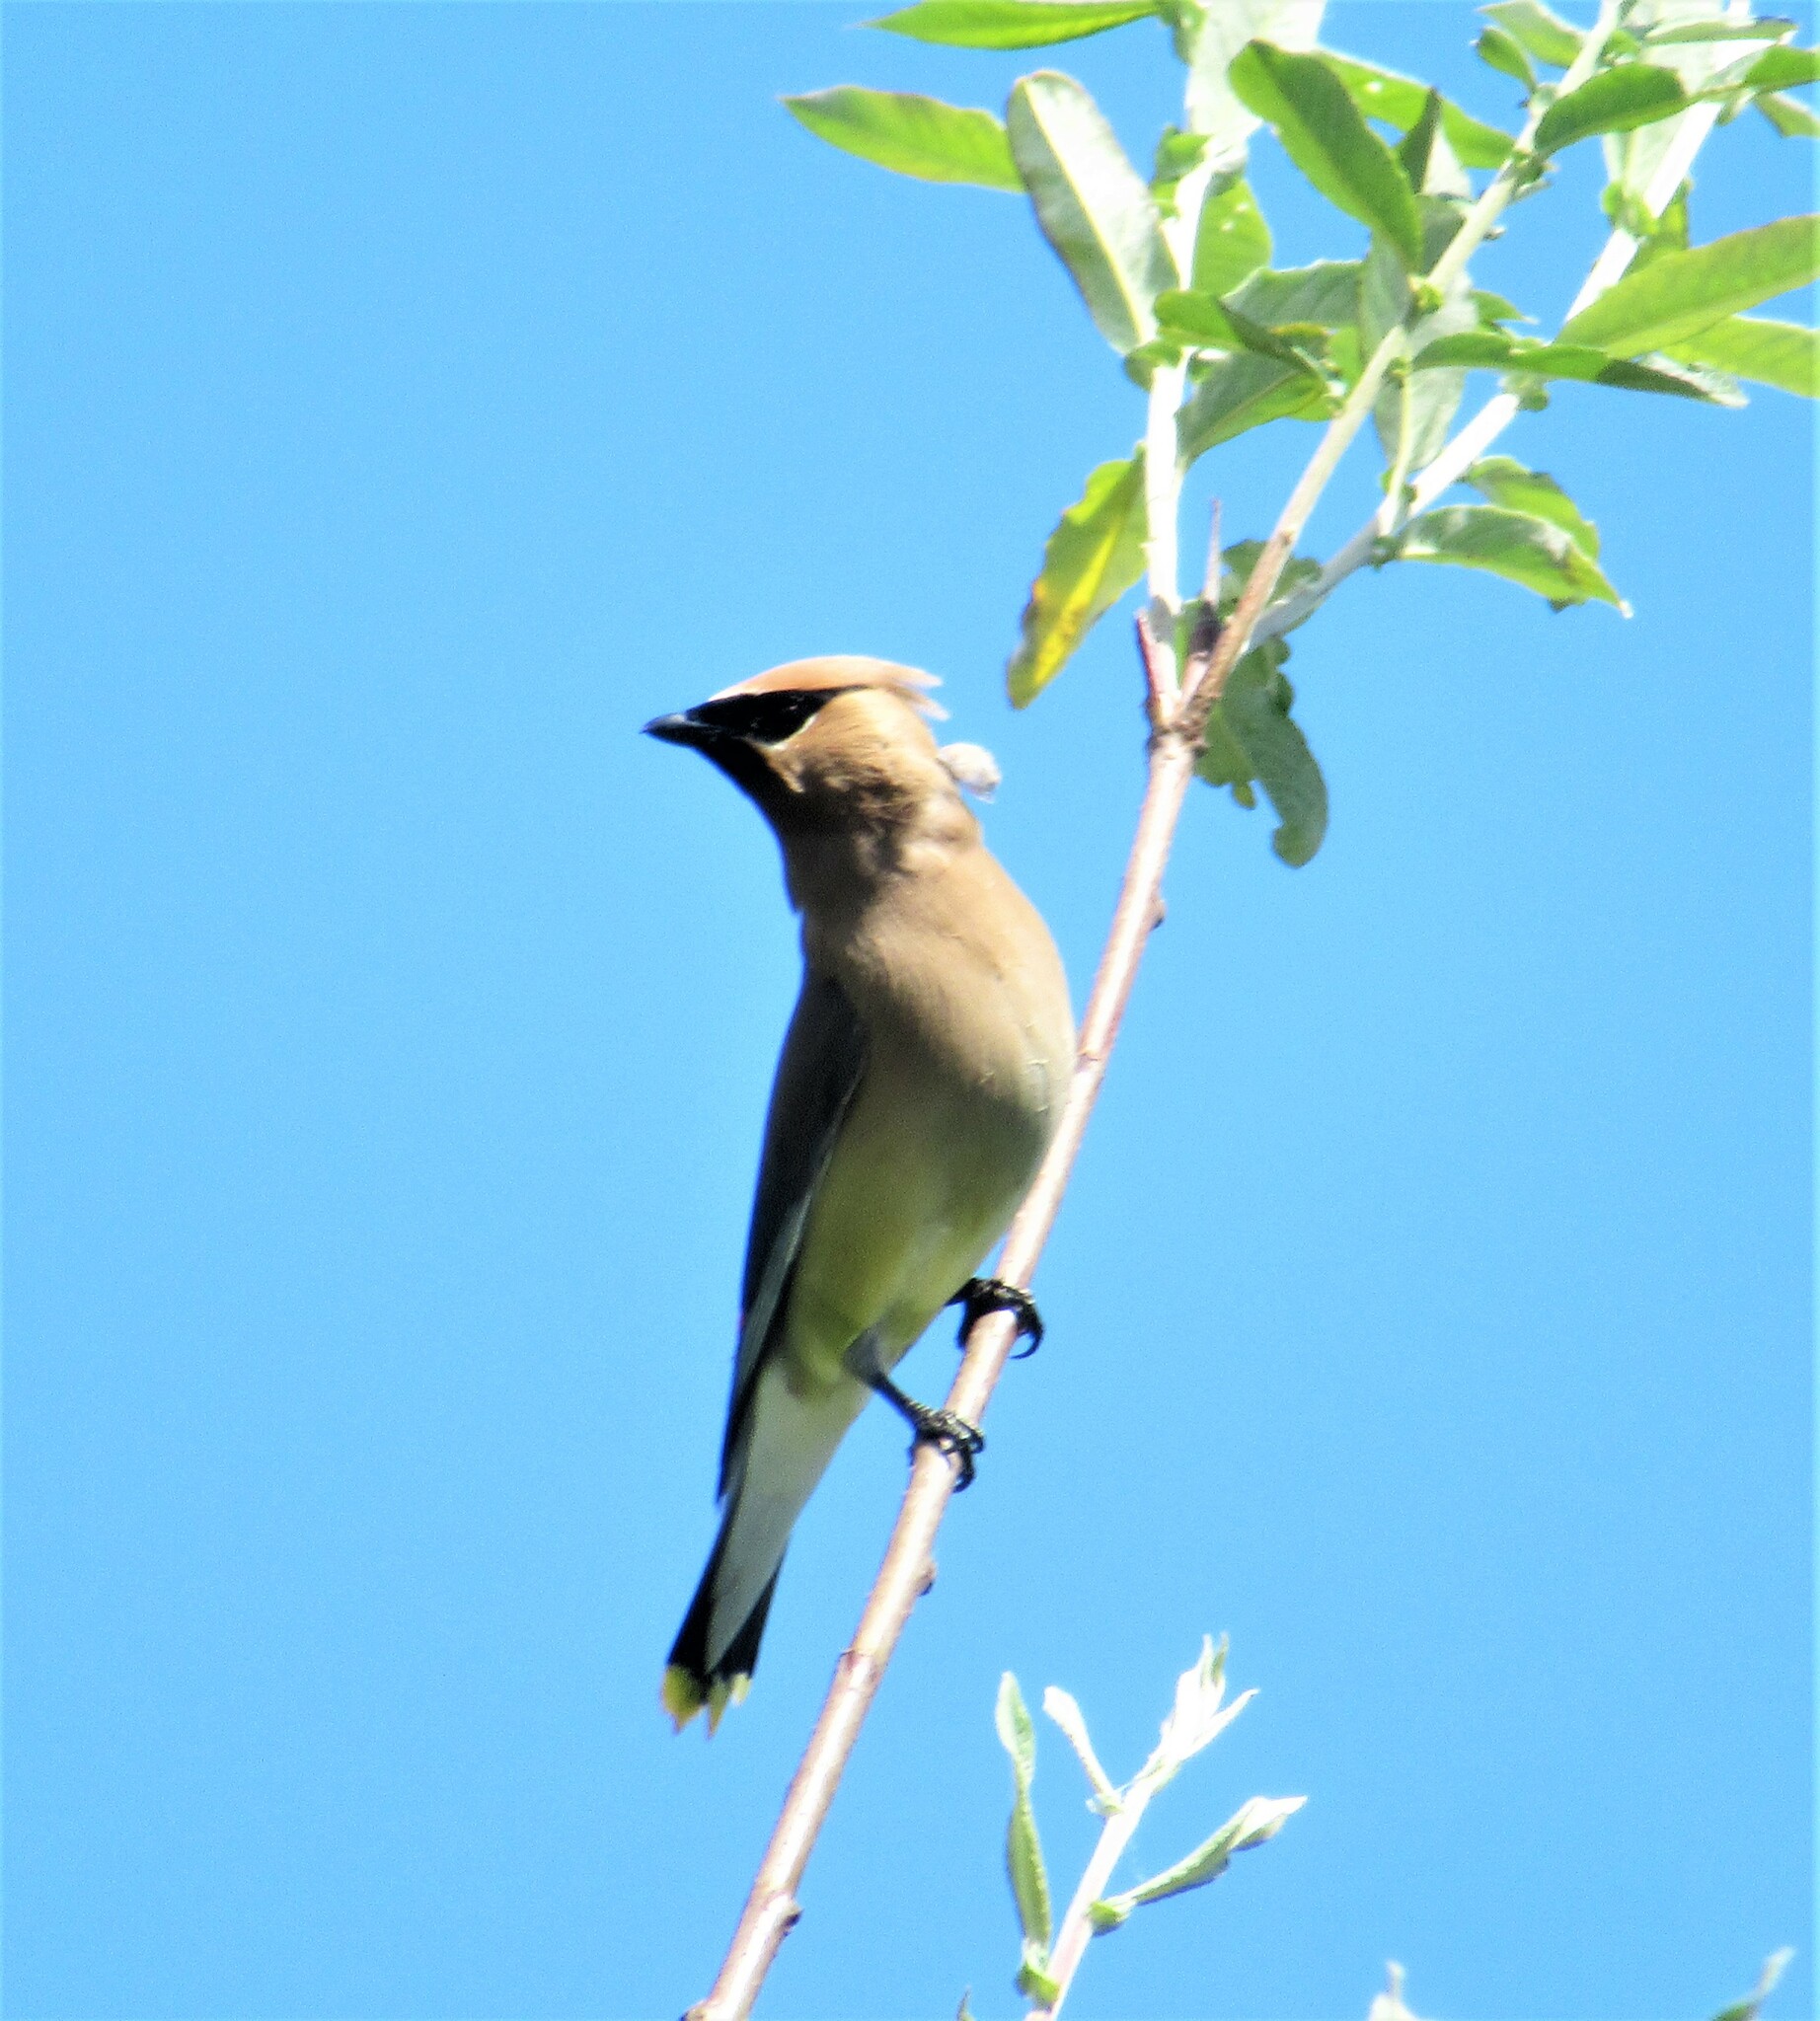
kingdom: Animalia
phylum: Chordata
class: Aves
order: Passeriformes
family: Bombycillidae
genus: Bombycilla
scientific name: Bombycilla cedrorum
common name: Cedar waxwing
